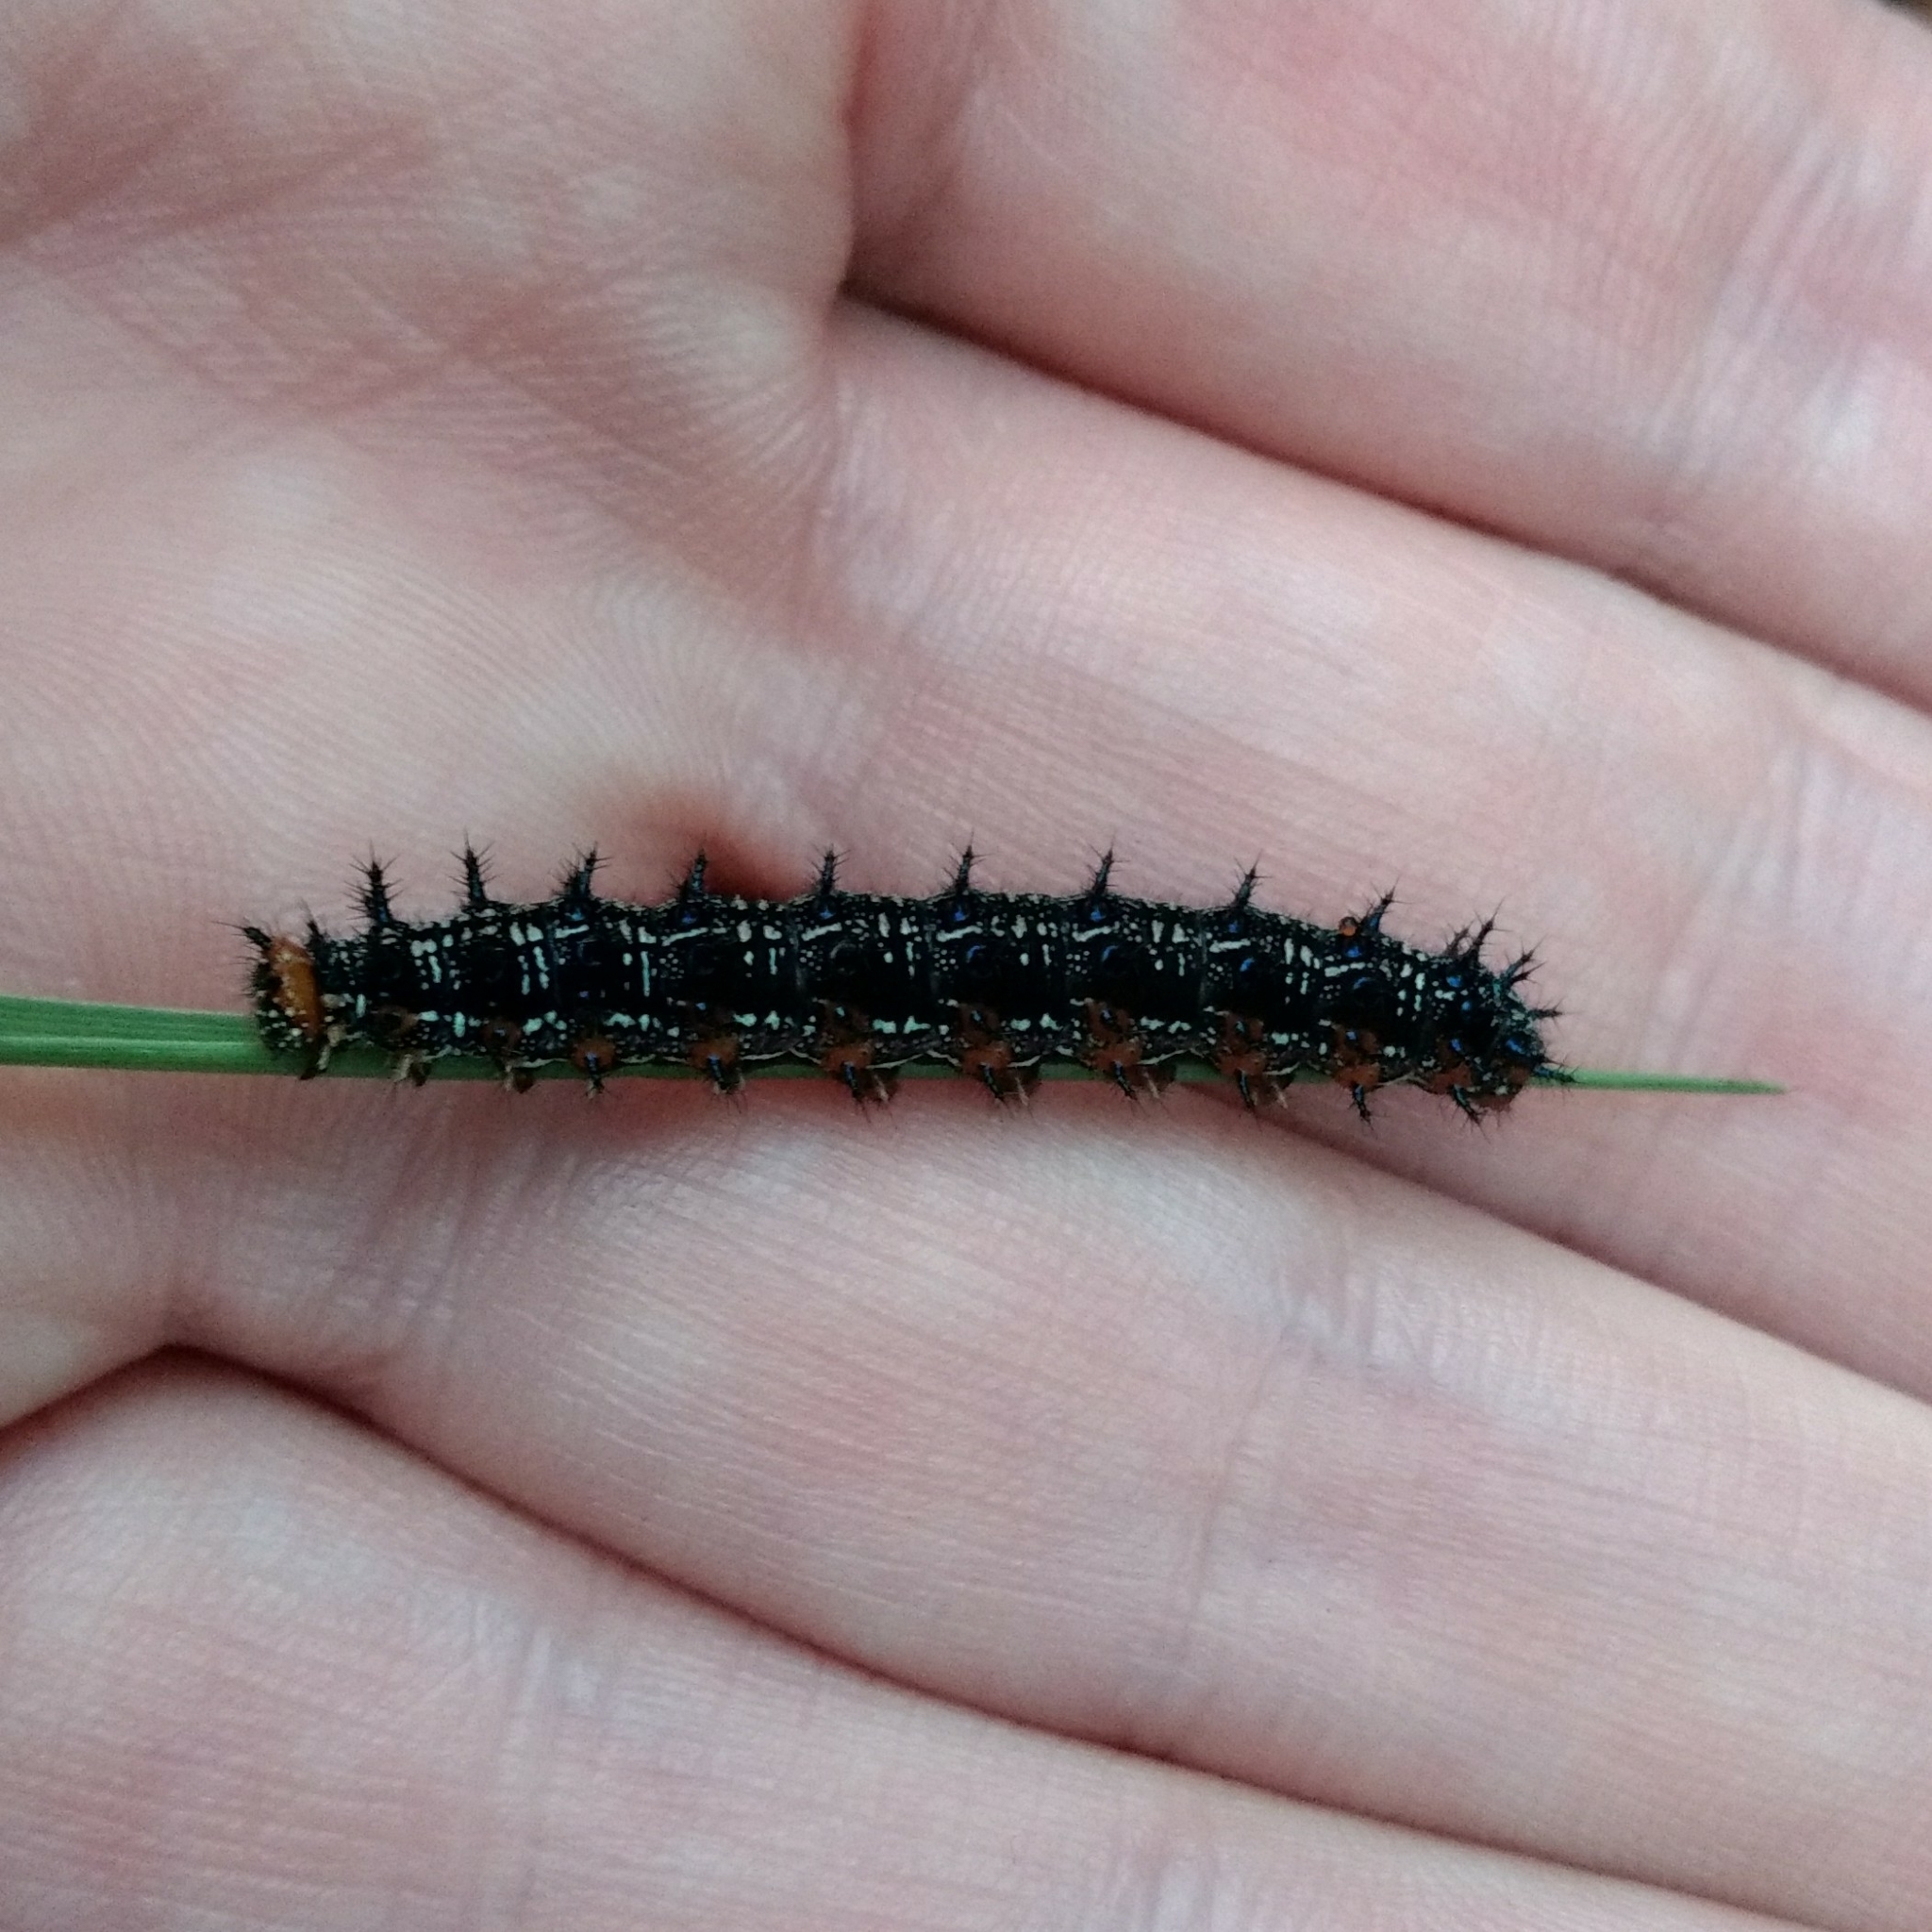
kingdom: Animalia
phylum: Arthropoda
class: Insecta
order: Lepidoptera
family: Nymphalidae
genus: Junonia
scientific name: Junonia coenia
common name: Common buckeye
